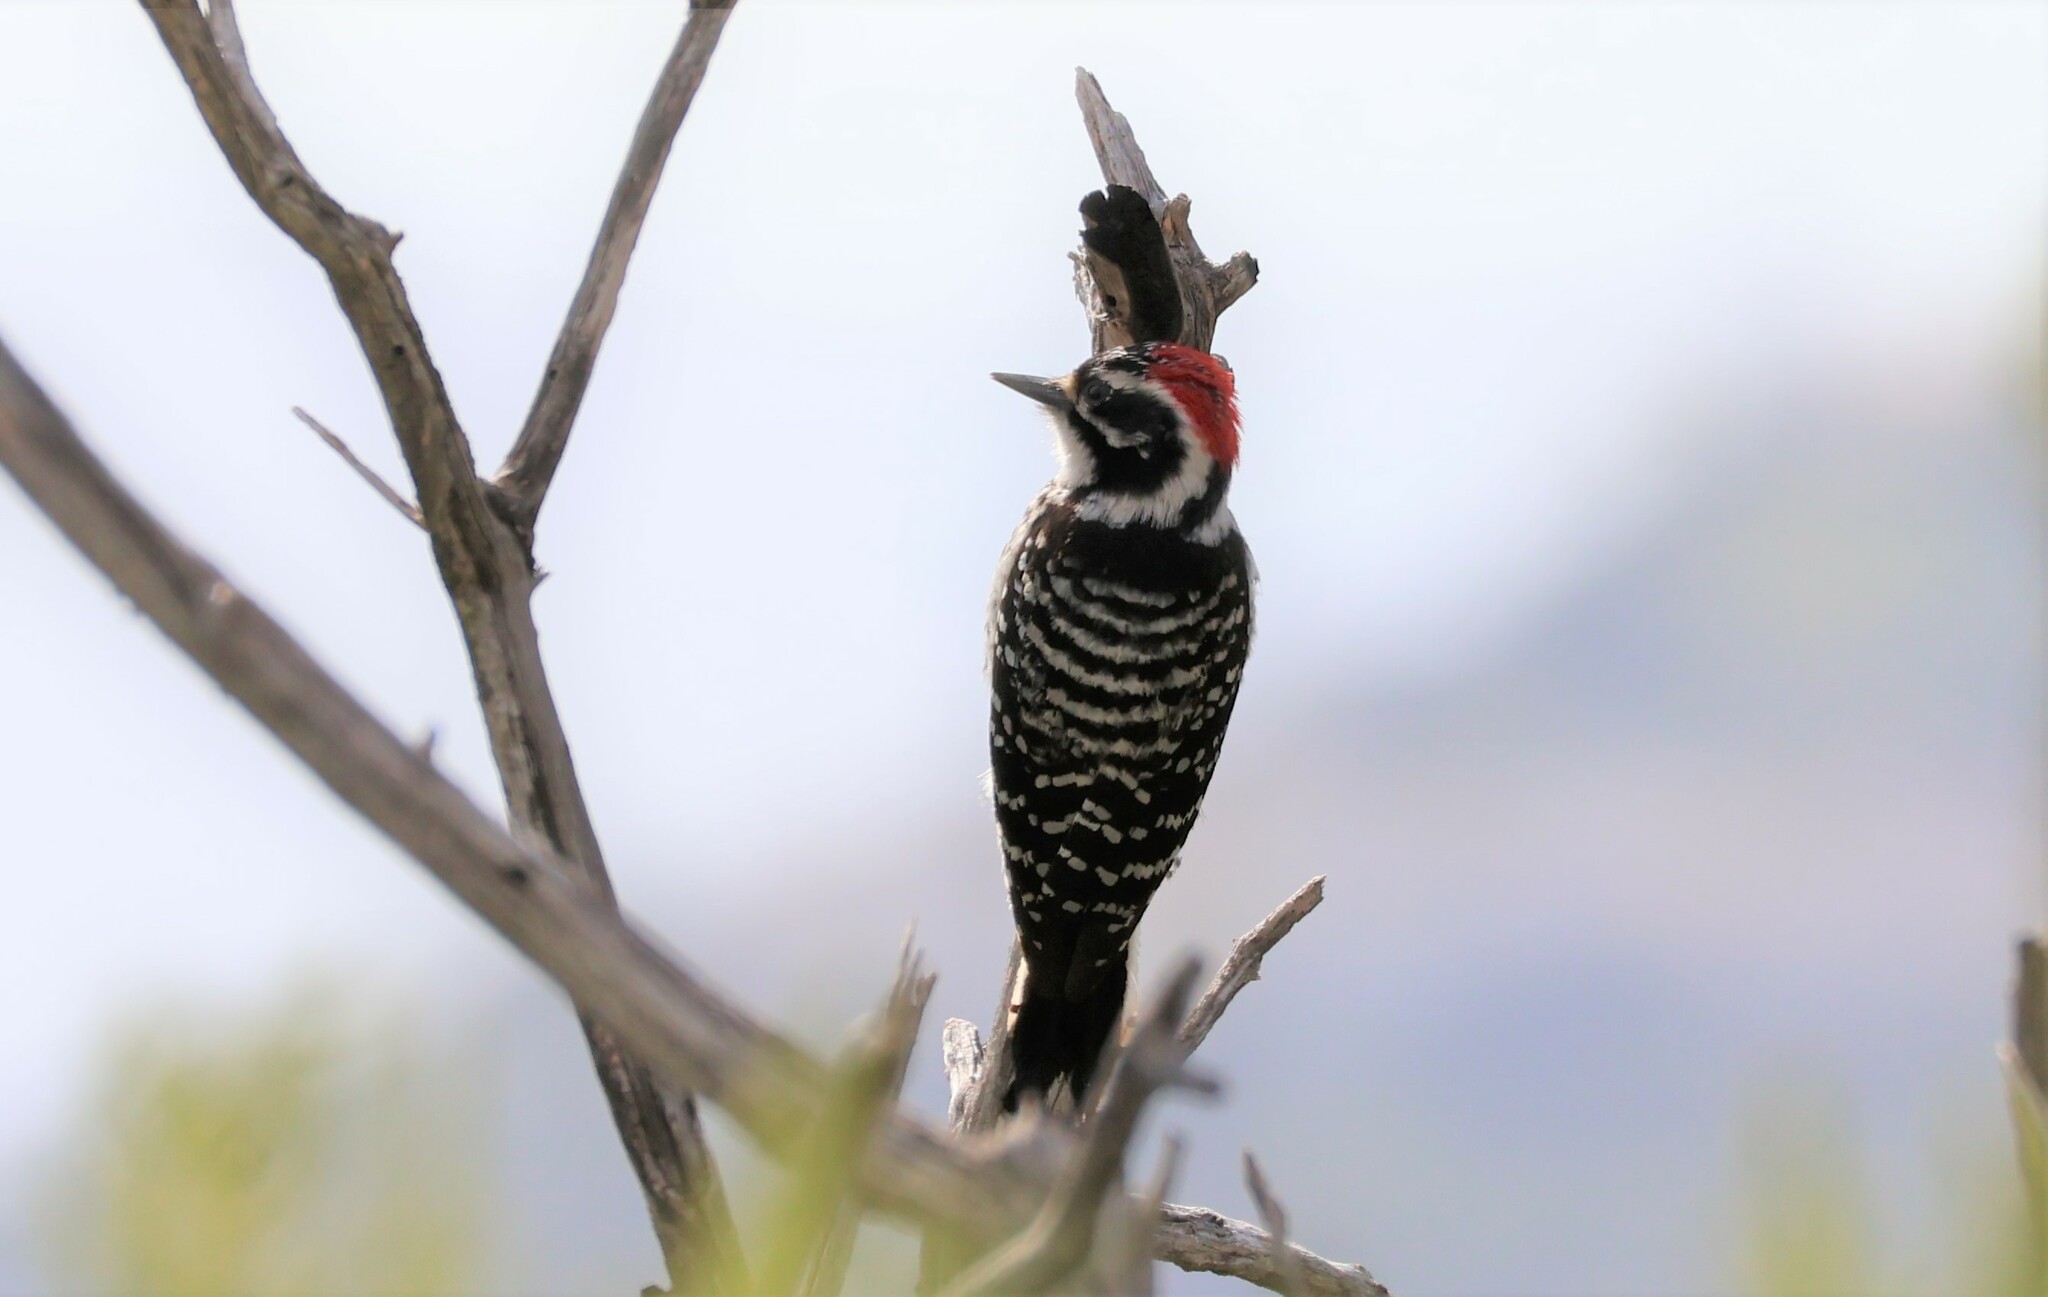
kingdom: Animalia
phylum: Chordata
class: Aves
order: Piciformes
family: Picidae
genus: Dryobates
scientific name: Dryobates nuttallii
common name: Nuttall's woodpecker
